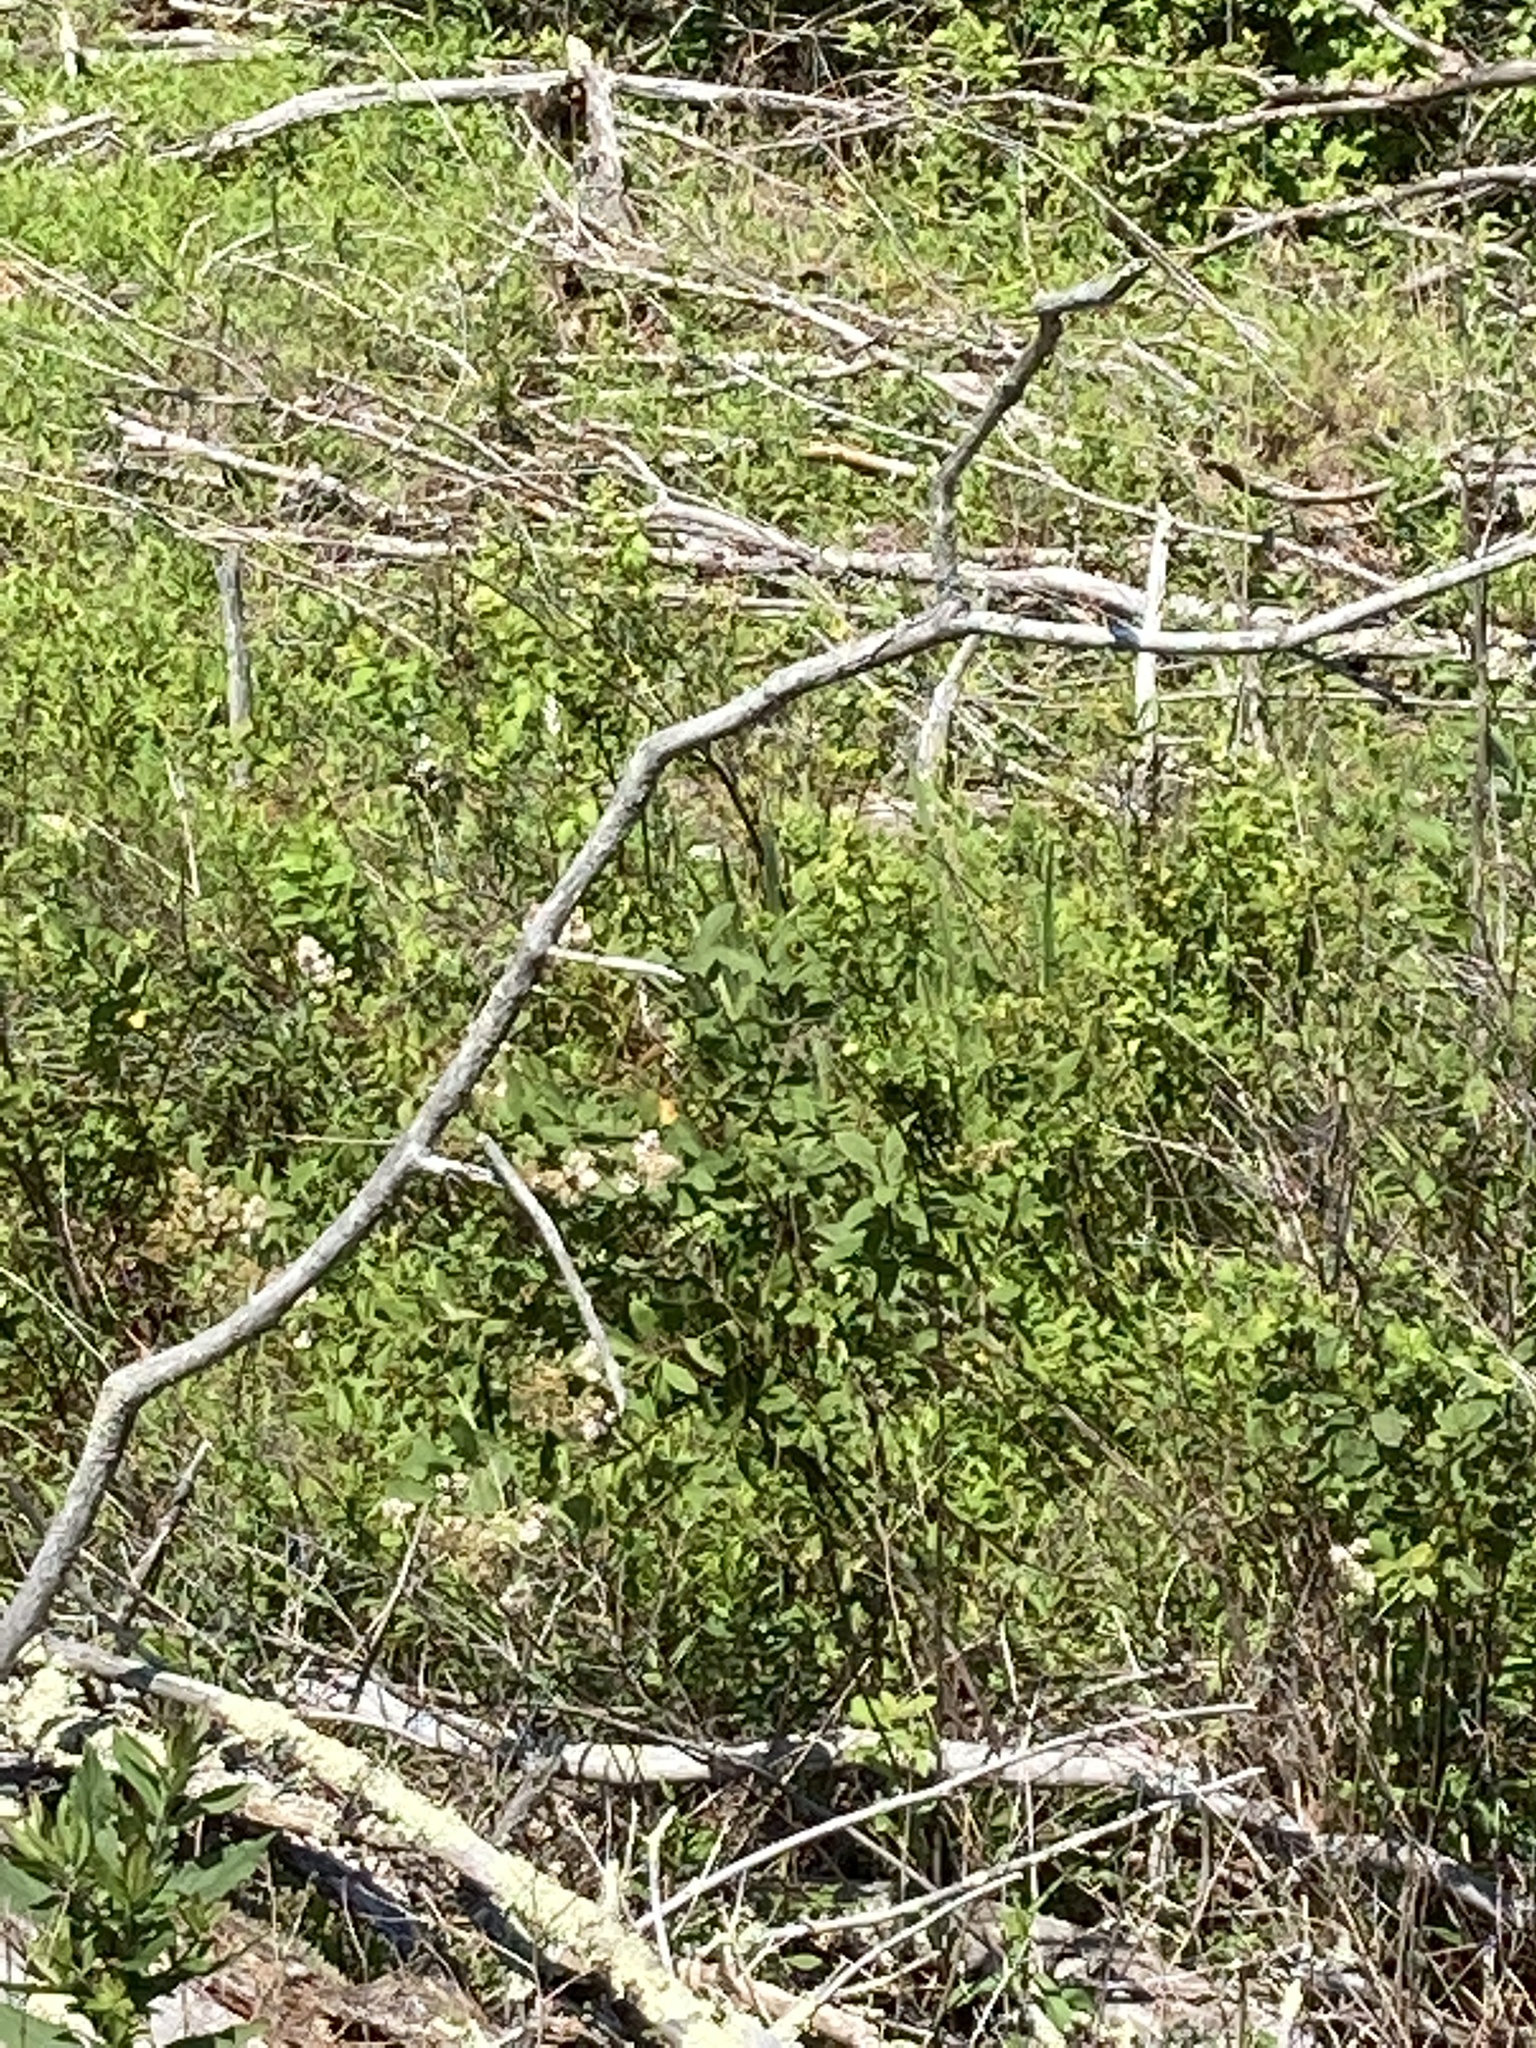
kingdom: Plantae
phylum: Tracheophyta
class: Magnoliopsida
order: Rosales
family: Rosaceae
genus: Spiraea
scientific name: Spiraea alba
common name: Pale bridewort
